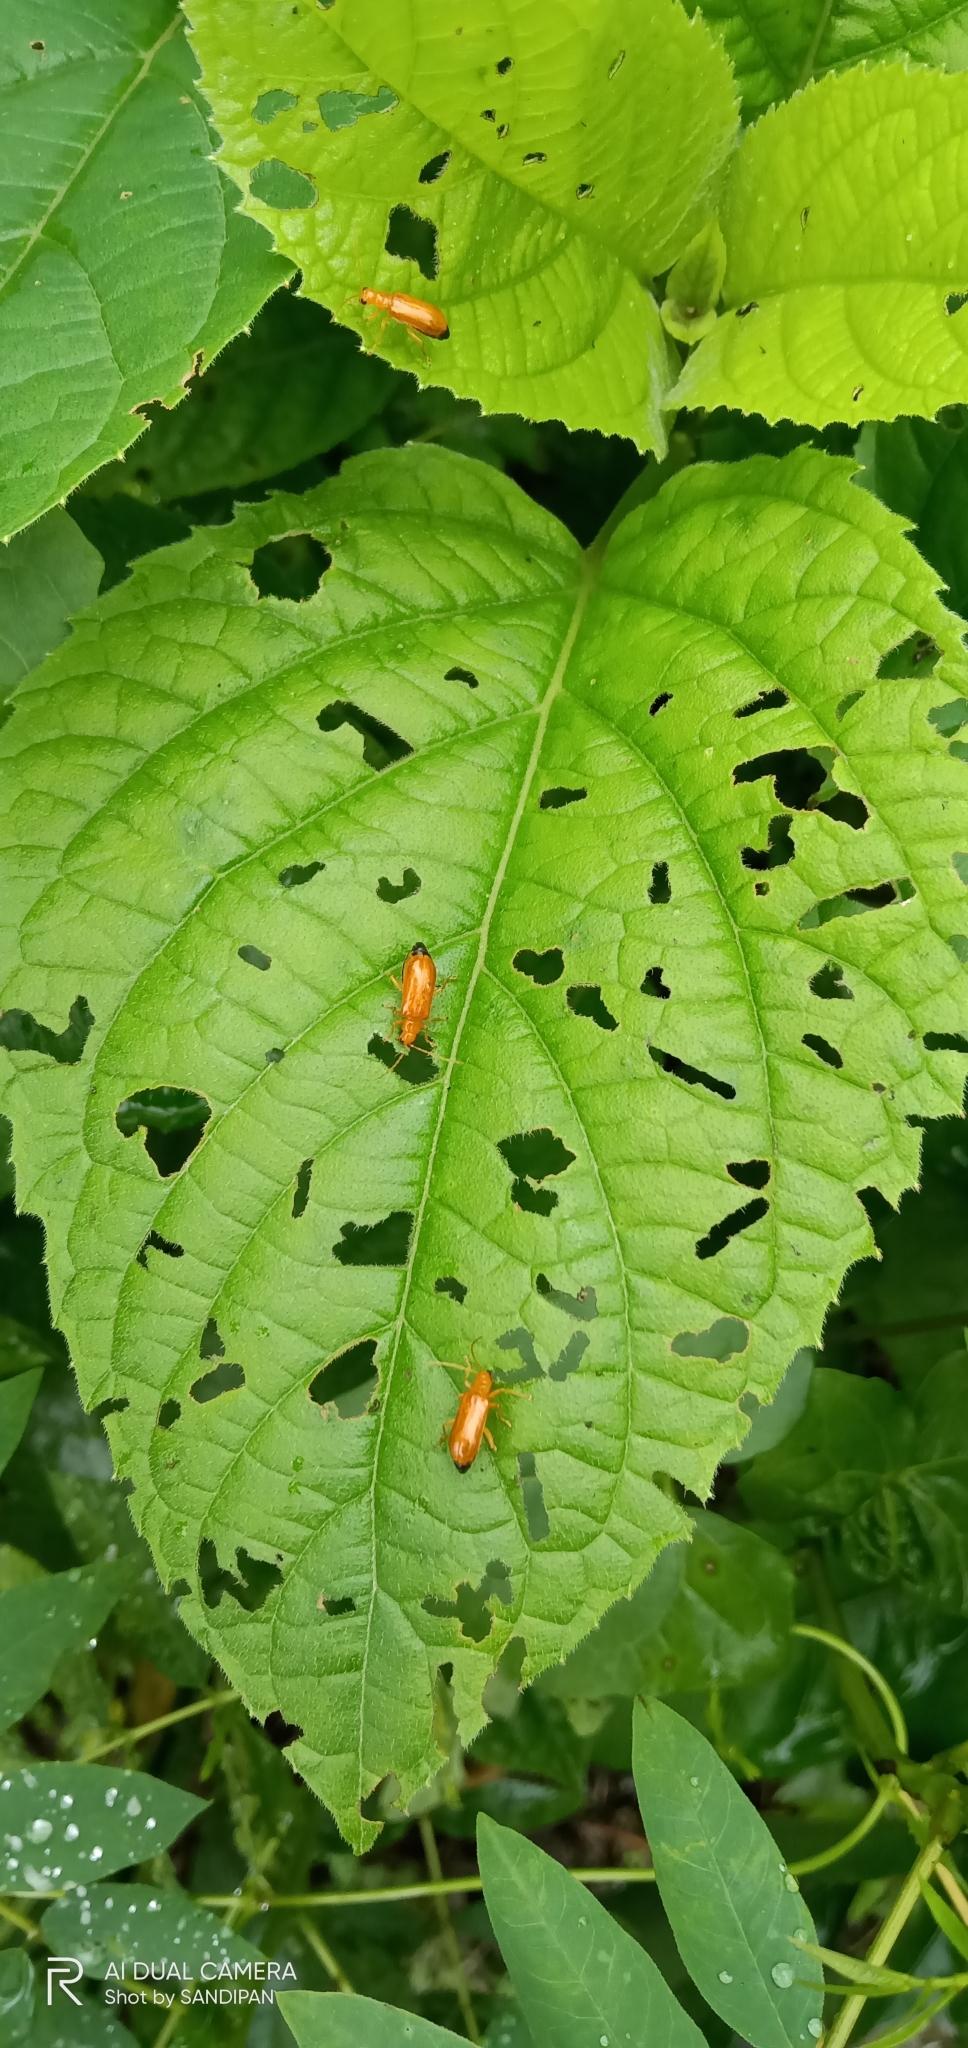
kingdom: Animalia
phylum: Arthropoda
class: Insecta
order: Coleoptera
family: Chrysomelidae
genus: Hoplasoma
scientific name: Hoplasoma unicolor
